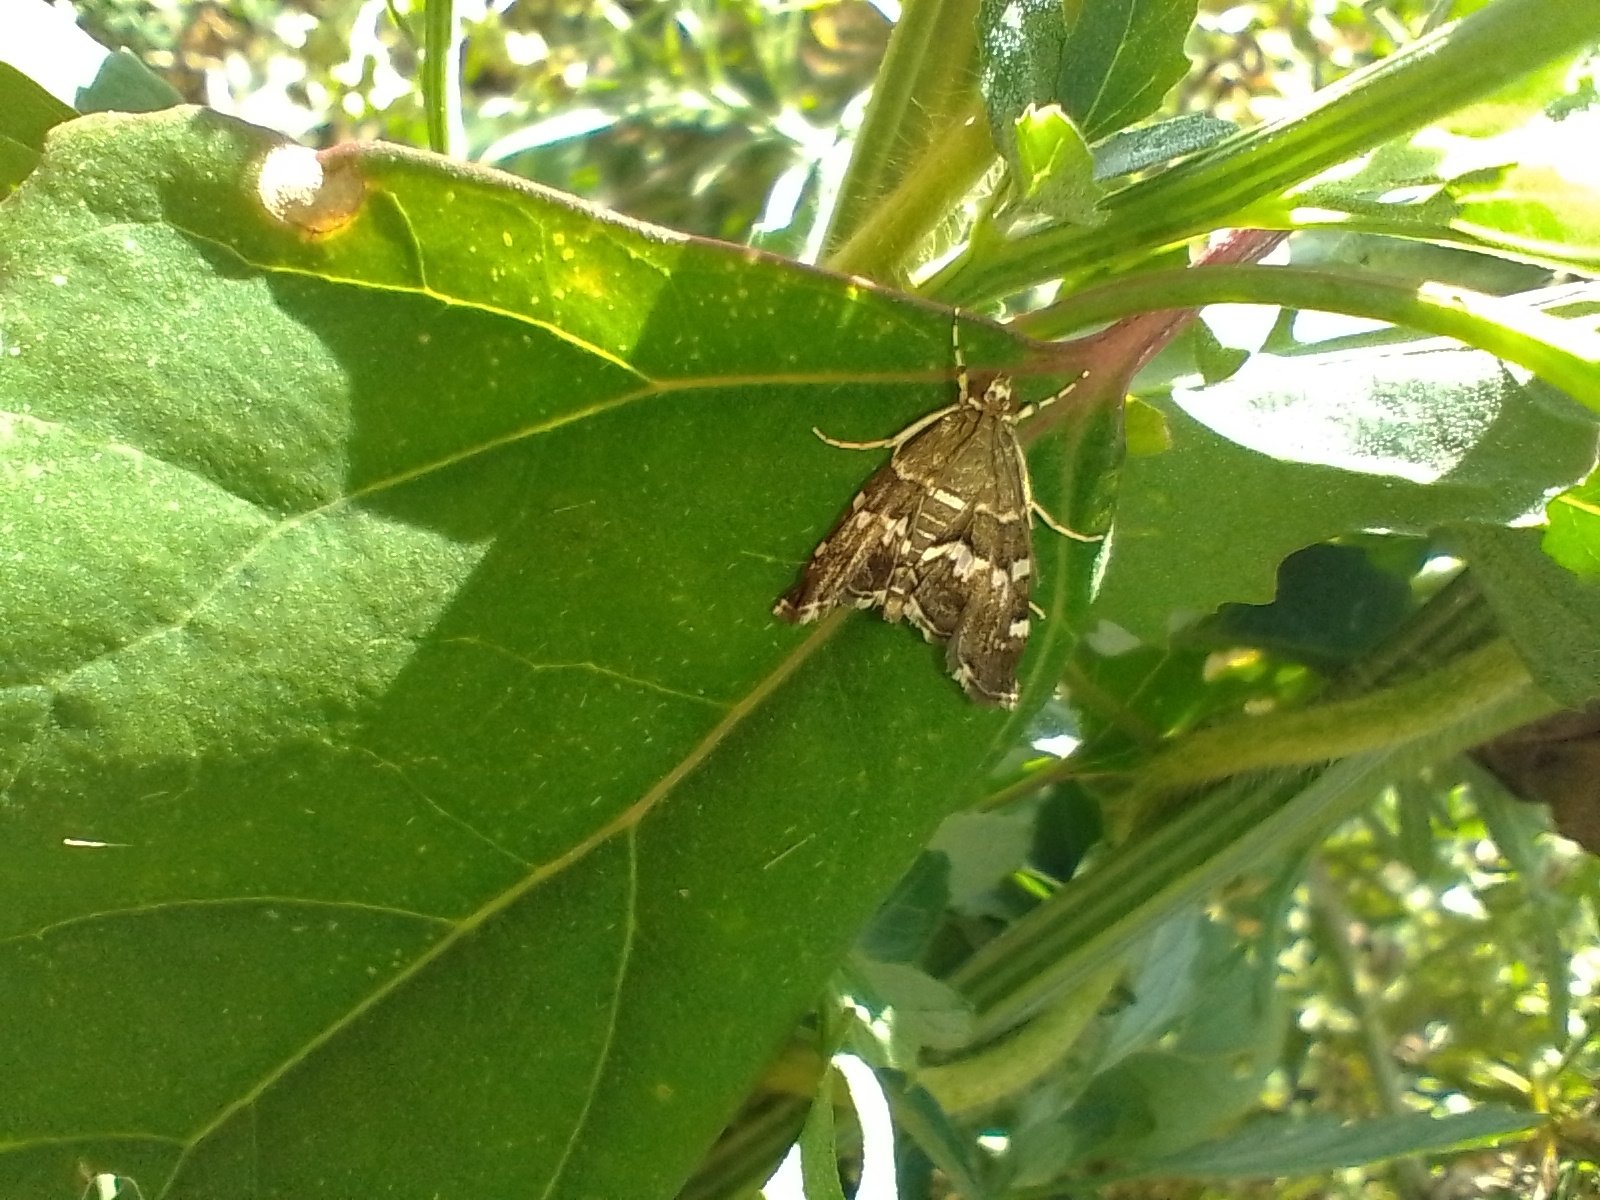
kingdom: Animalia
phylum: Arthropoda
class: Insecta
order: Lepidoptera
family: Crambidae
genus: Hymenia
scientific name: Hymenia perspectalis
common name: Spotted beet webworm
